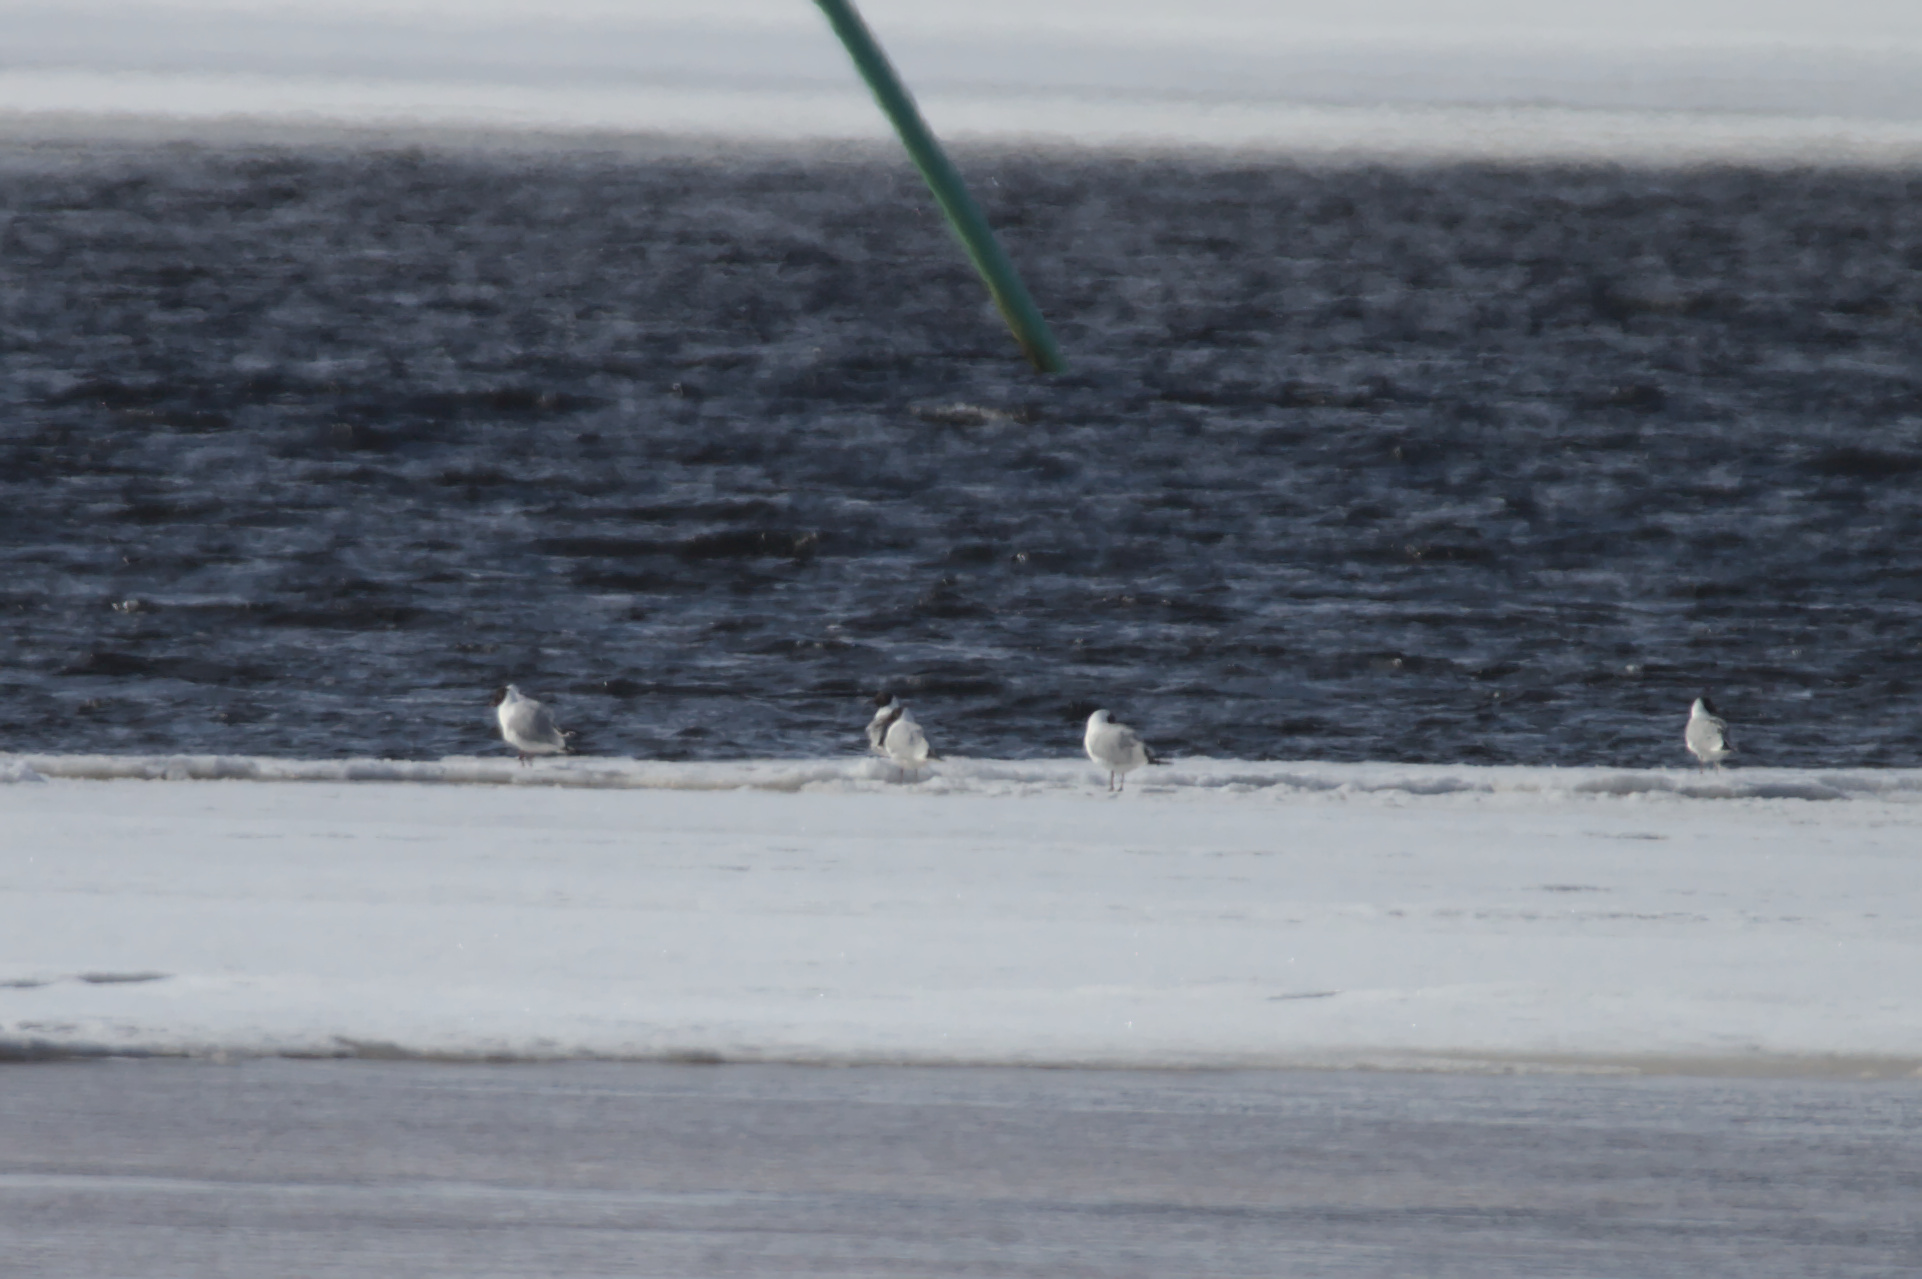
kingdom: Animalia
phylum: Chordata
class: Aves
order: Charadriiformes
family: Laridae
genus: Chroicocephalus
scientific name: Chroicocephalus ridibundus
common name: Black-headed gull
